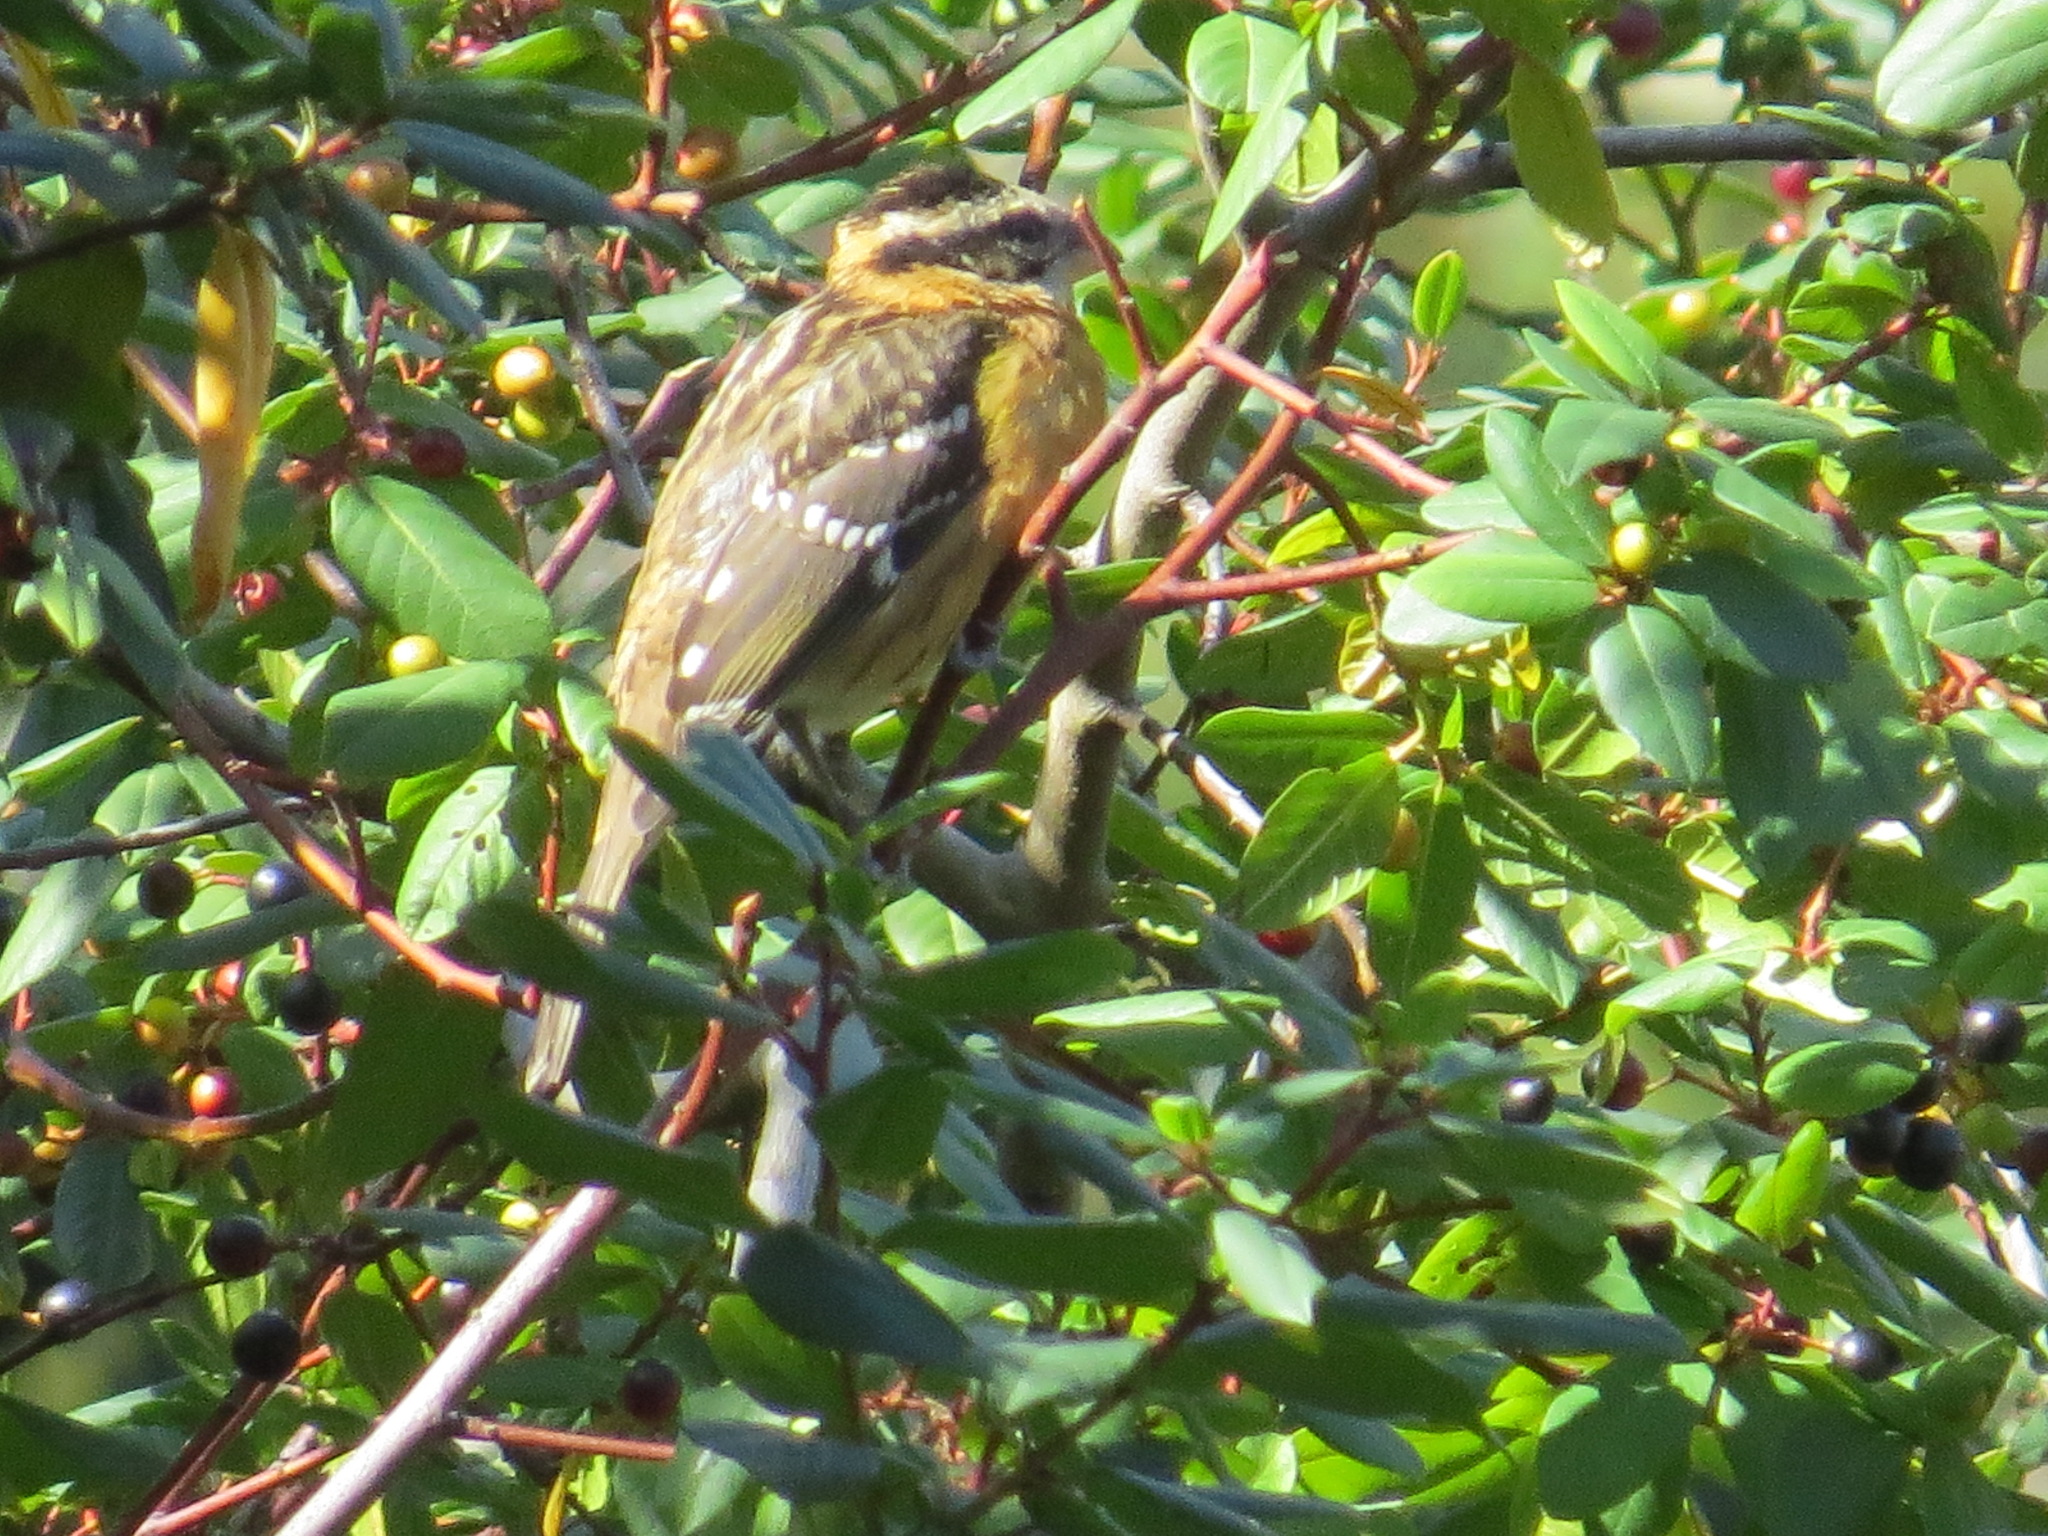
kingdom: Animalia
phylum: Chordata
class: Aves
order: Passeriformes
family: Cardinalidae
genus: Pheucticus
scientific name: Pheucticus melanocephalus
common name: Black-headed grosbeak
